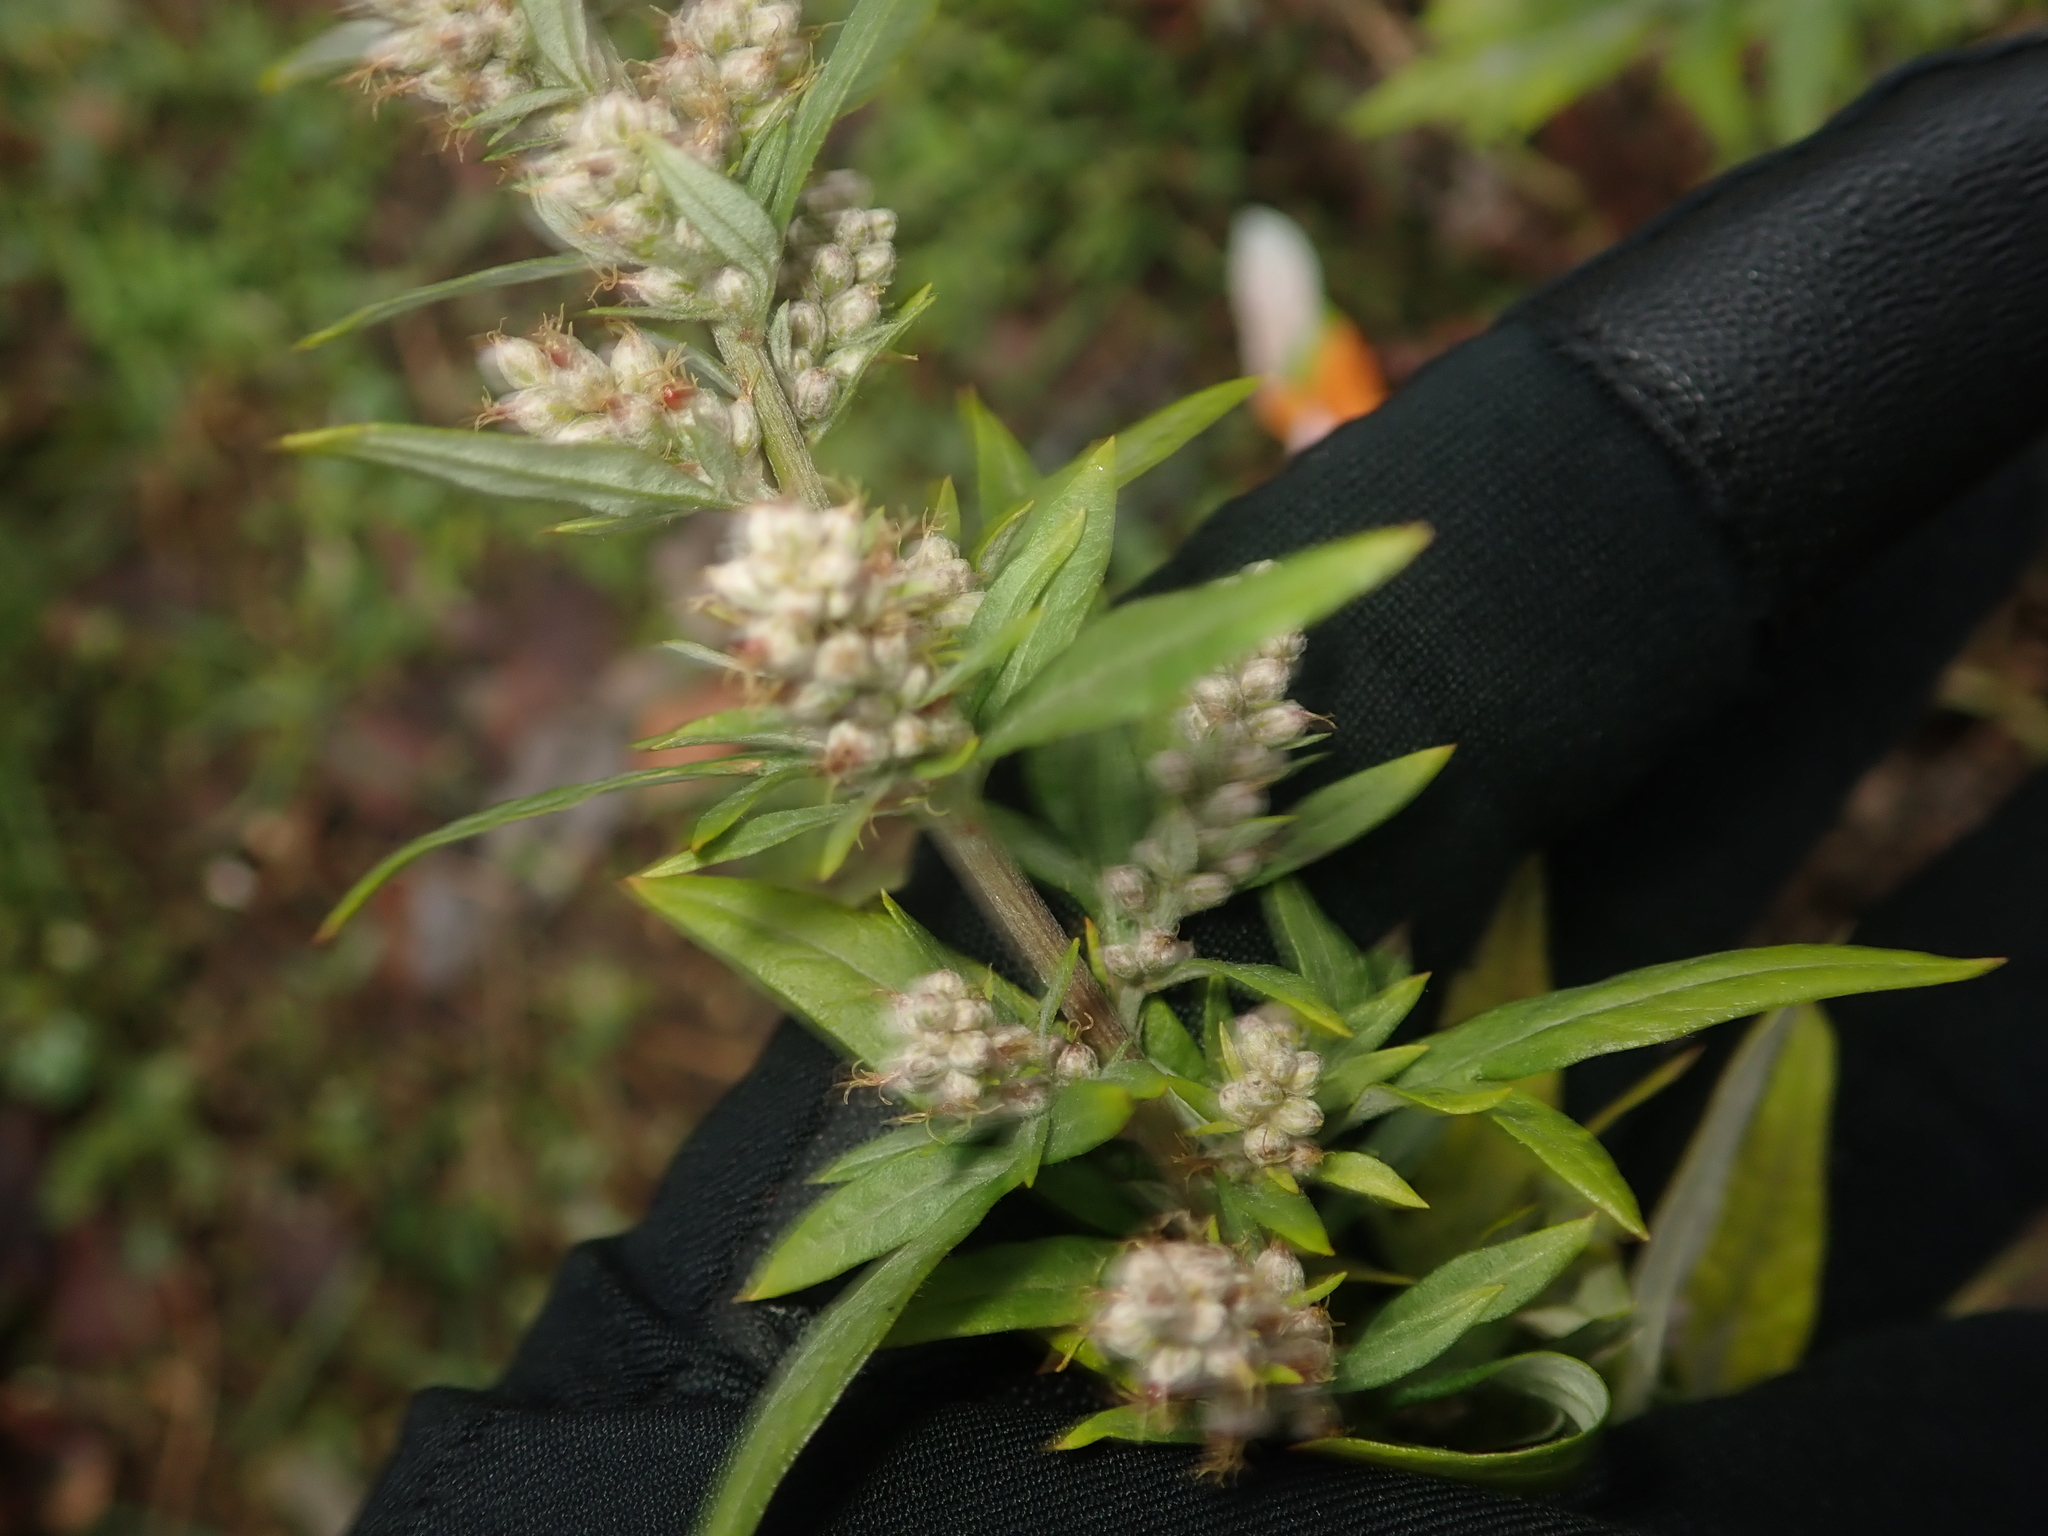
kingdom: Plantae
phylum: Tracheophyta
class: Magnoliopsida
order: Asterales
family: Asteraceae
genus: Artemisia
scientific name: Artemisia vulgaris
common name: Mugwort
